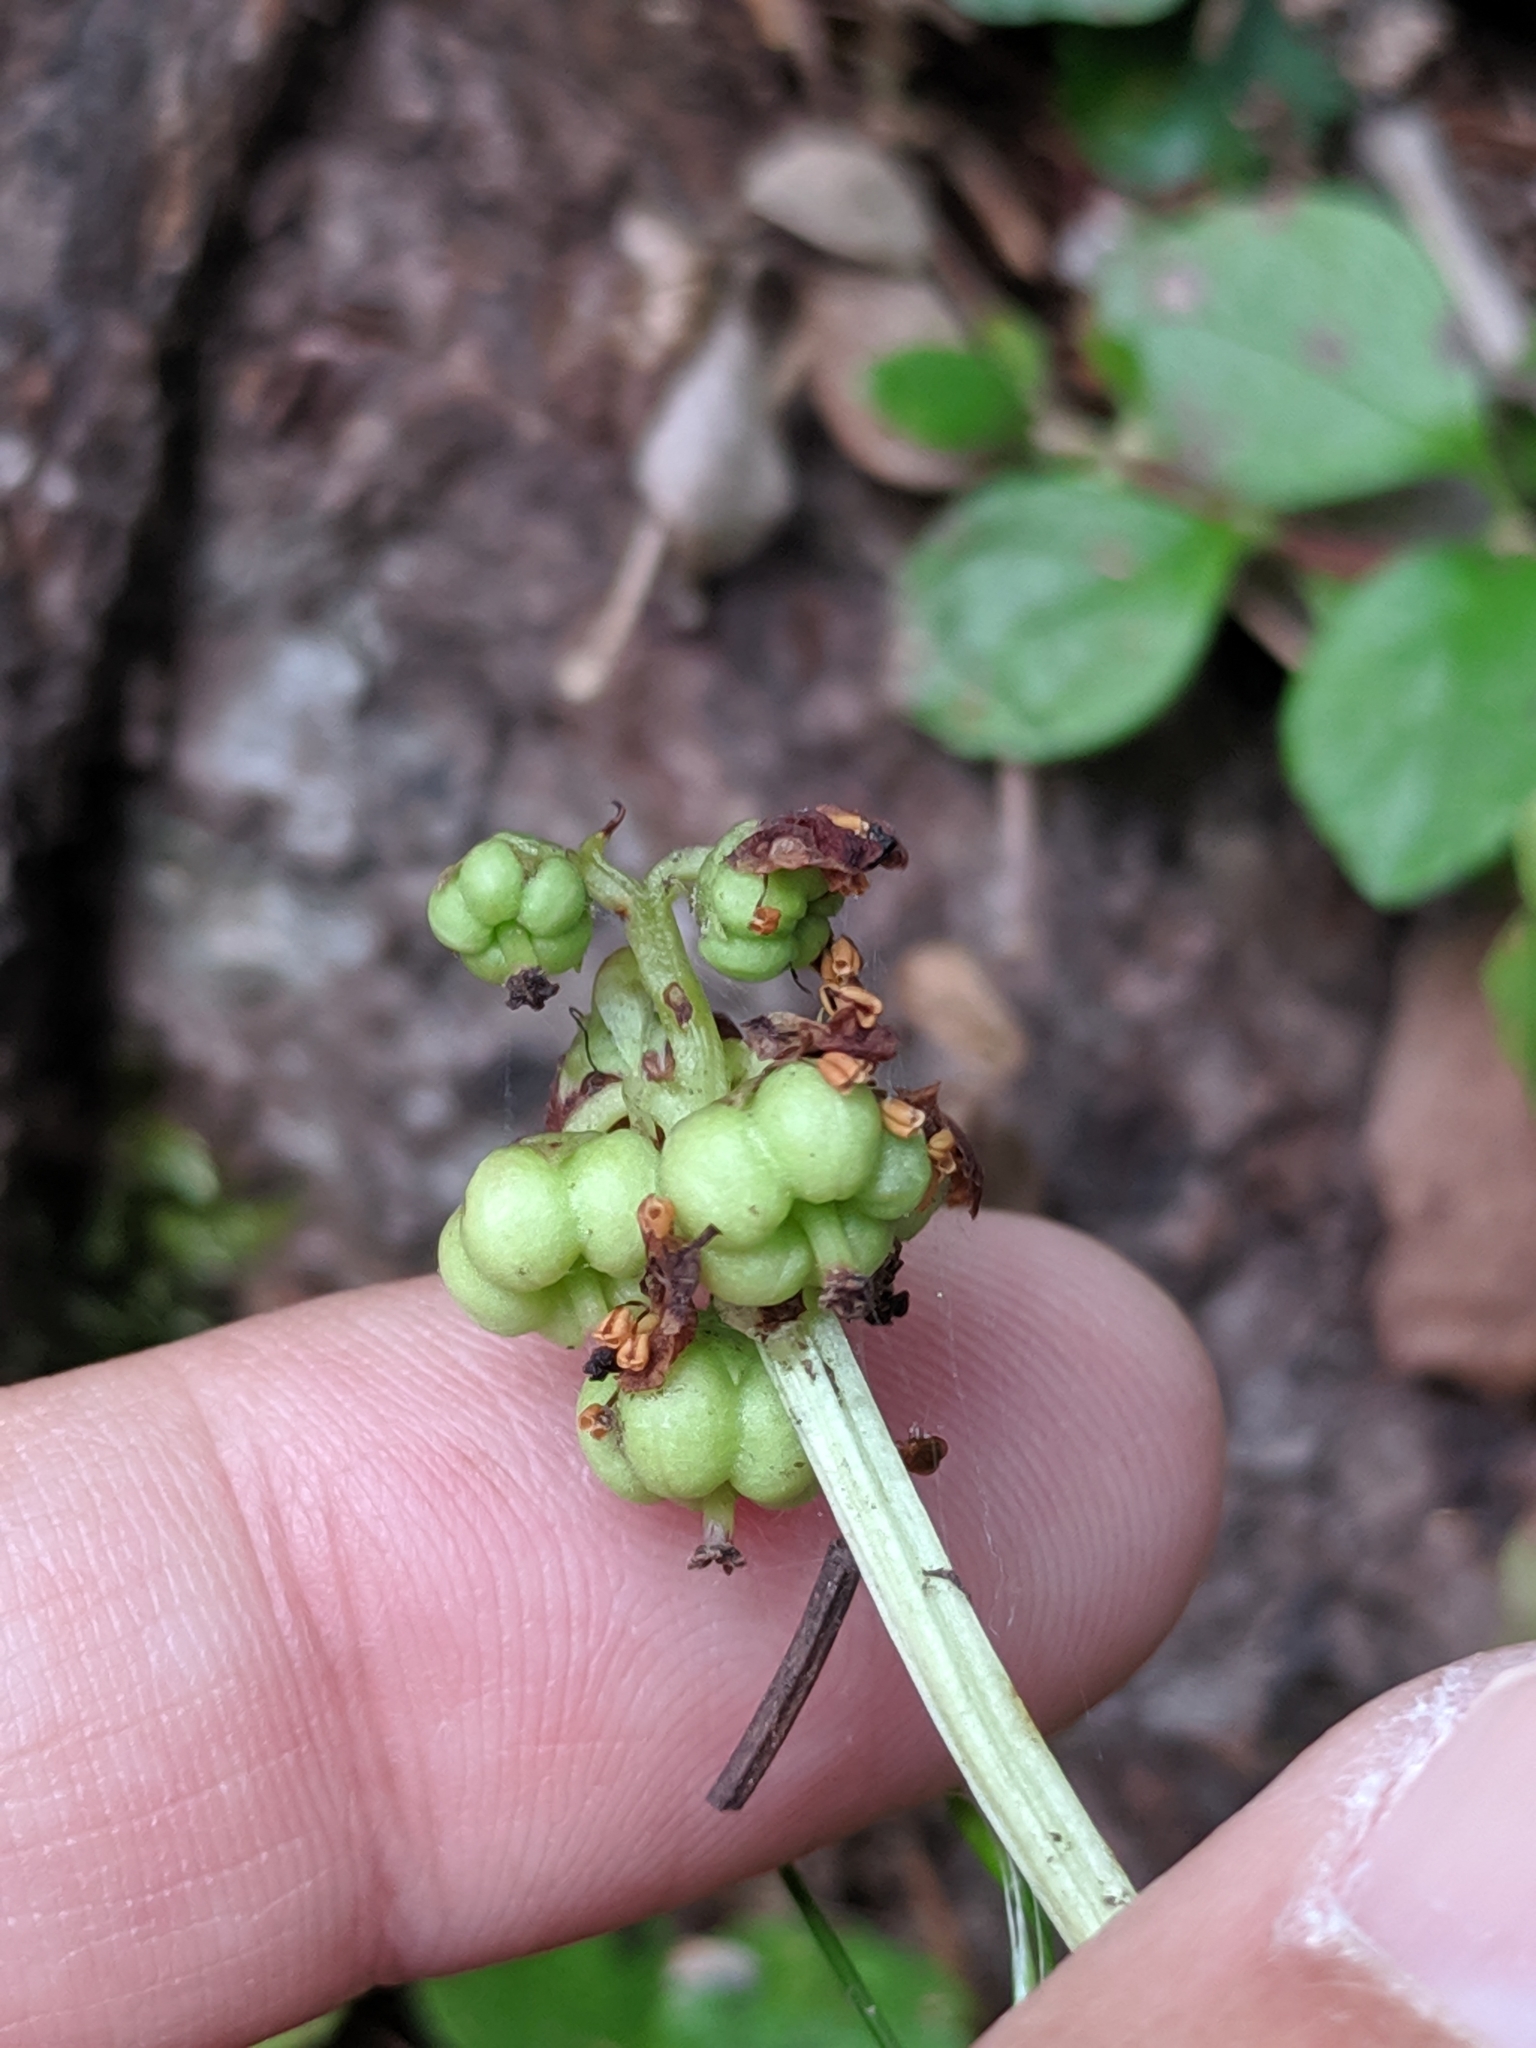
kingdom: Plantae
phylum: Tracheophyta
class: Magnoliopsida
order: Ericales
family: Ericaceae
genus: Pyrola
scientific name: Pyrola minor
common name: Common wintergreen
